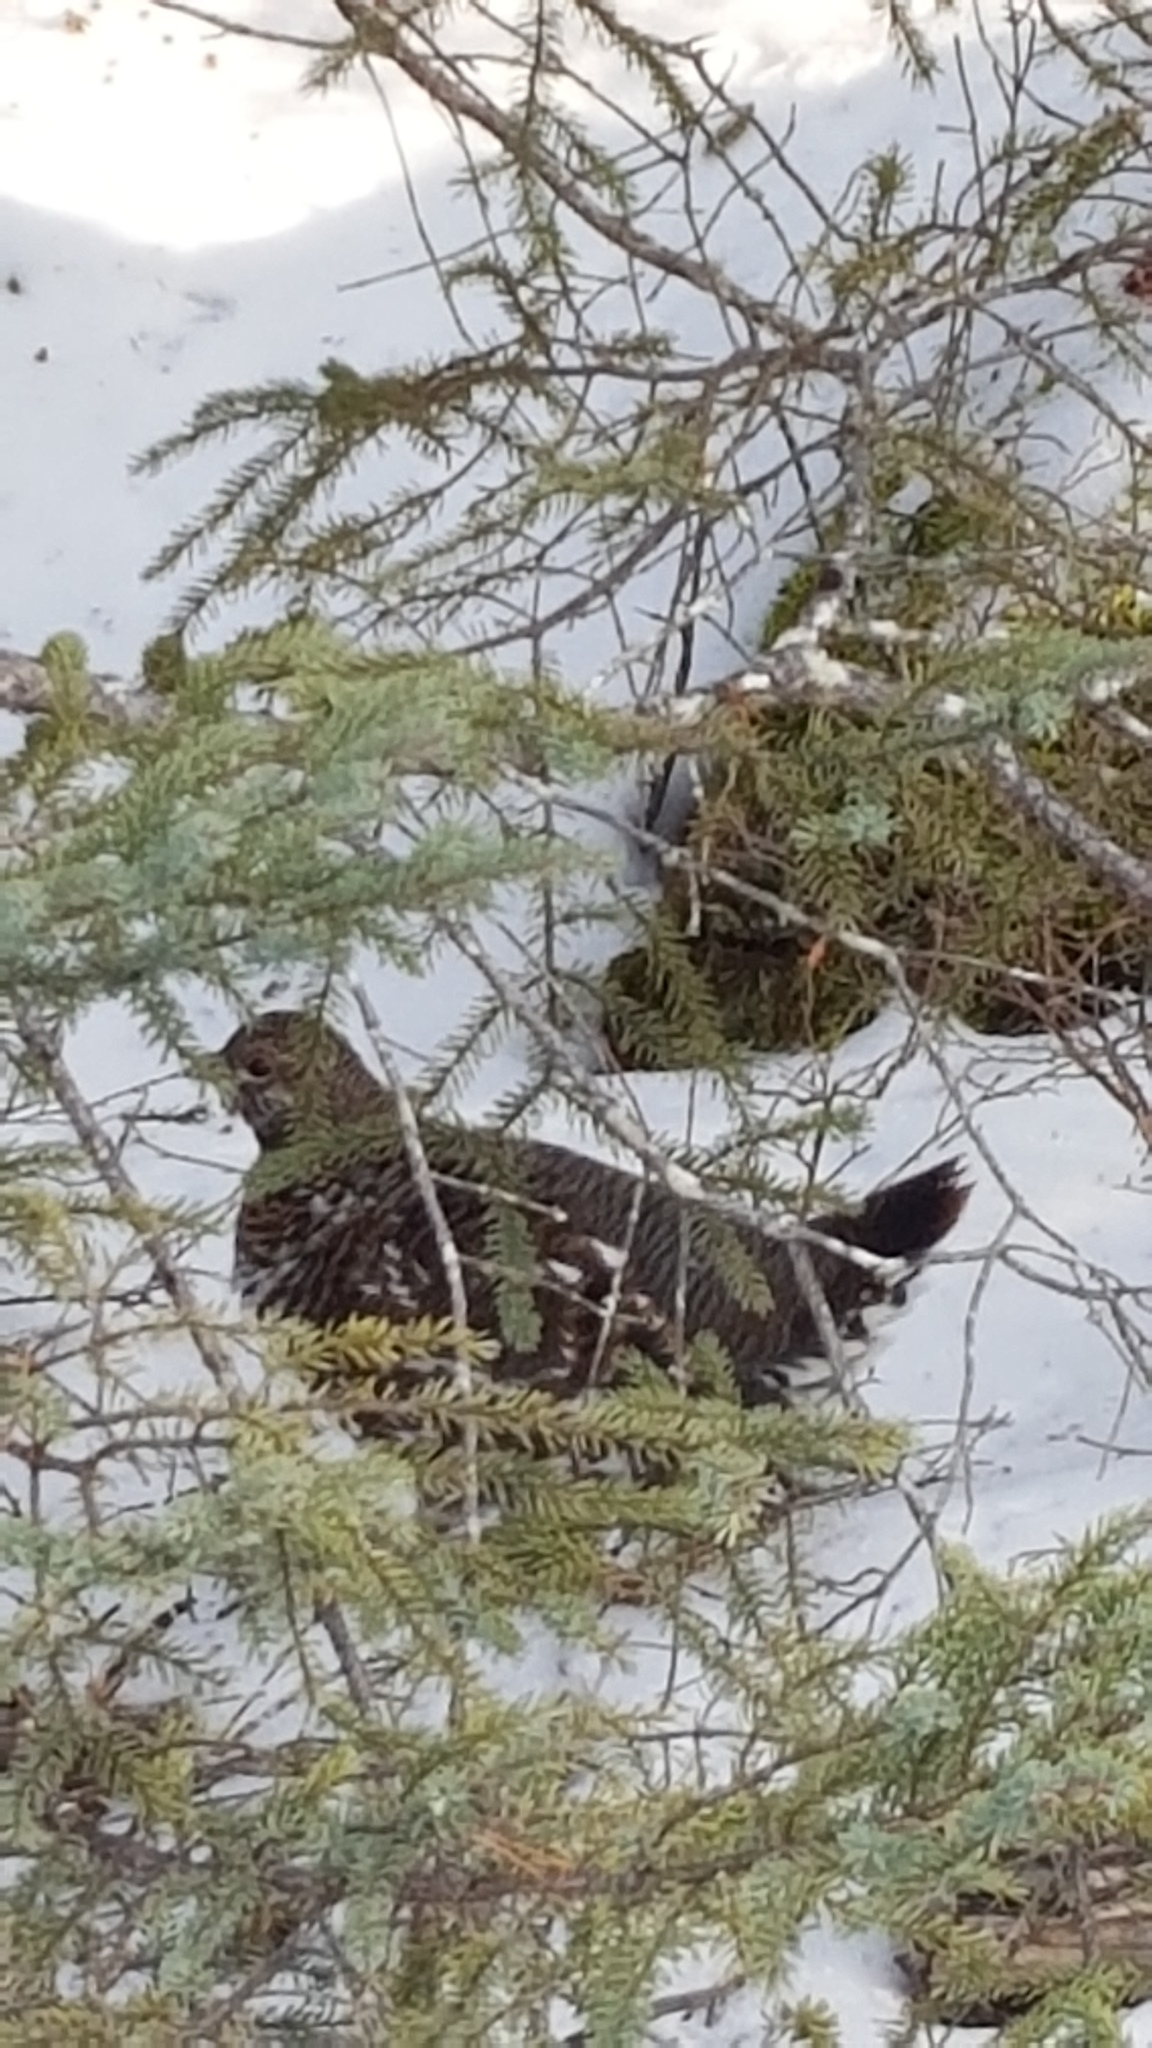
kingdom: Animalia
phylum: Chordata
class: Aves
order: Galliformes
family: Phasianidae
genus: Canachites
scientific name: Canachites canadensis
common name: Spruce grouse
